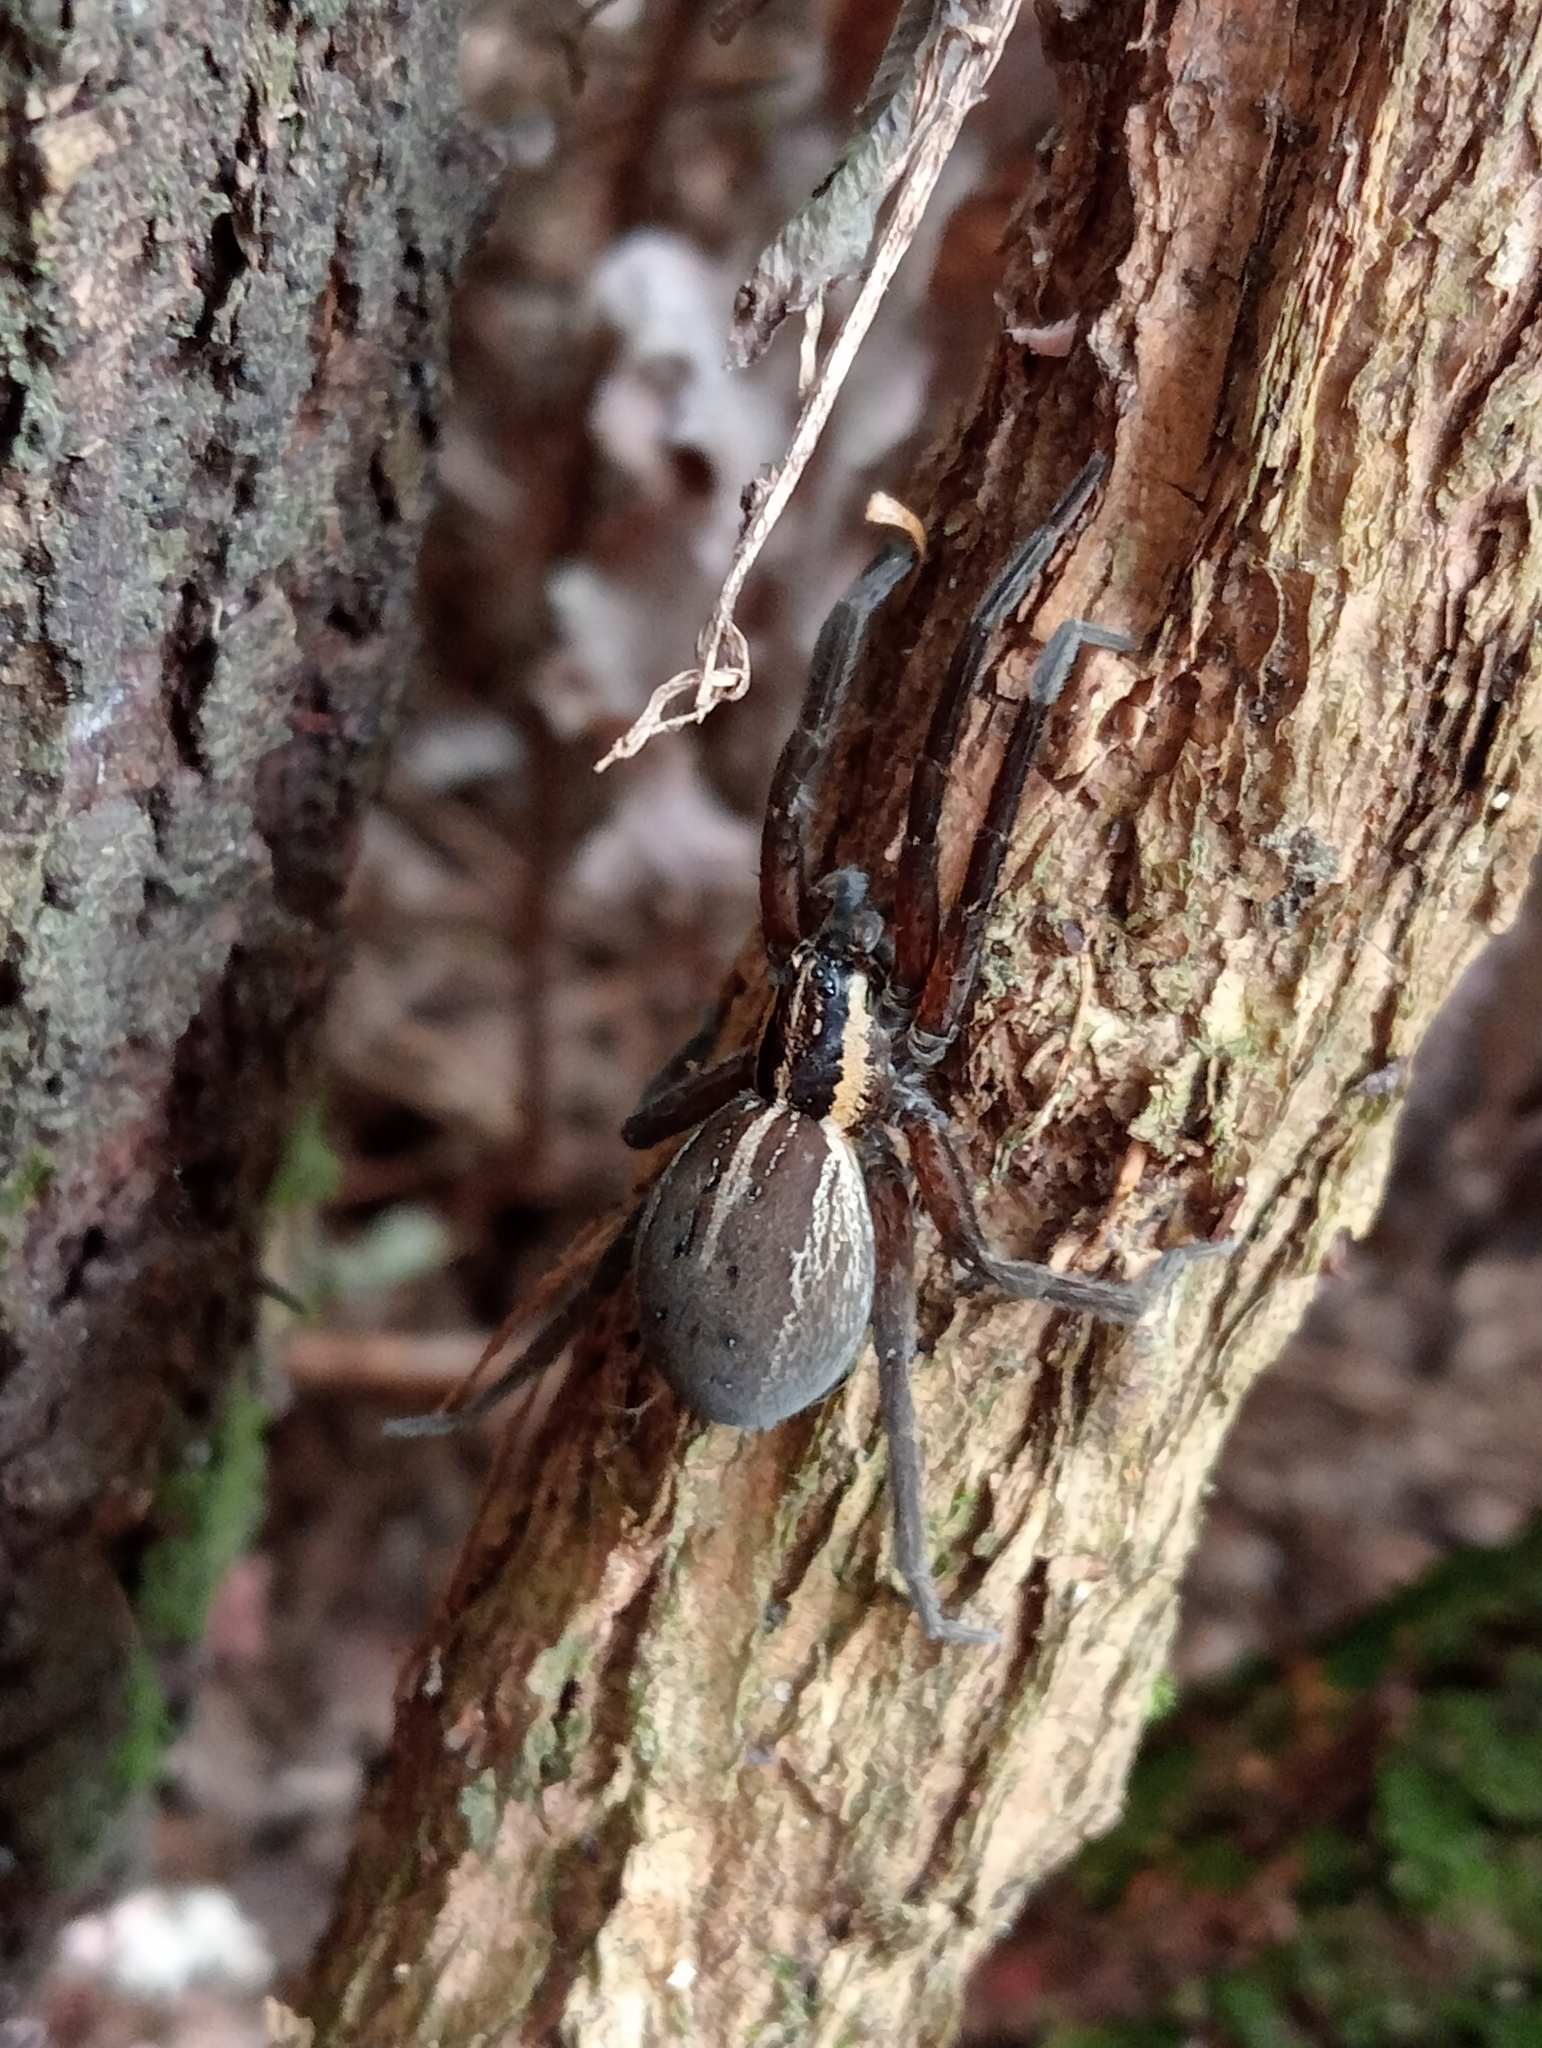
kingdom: Animalia
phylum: Arthropoda
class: Arachnida
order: Araneae
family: Pisauridae
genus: Dolomedes
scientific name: Dolomedes minor
